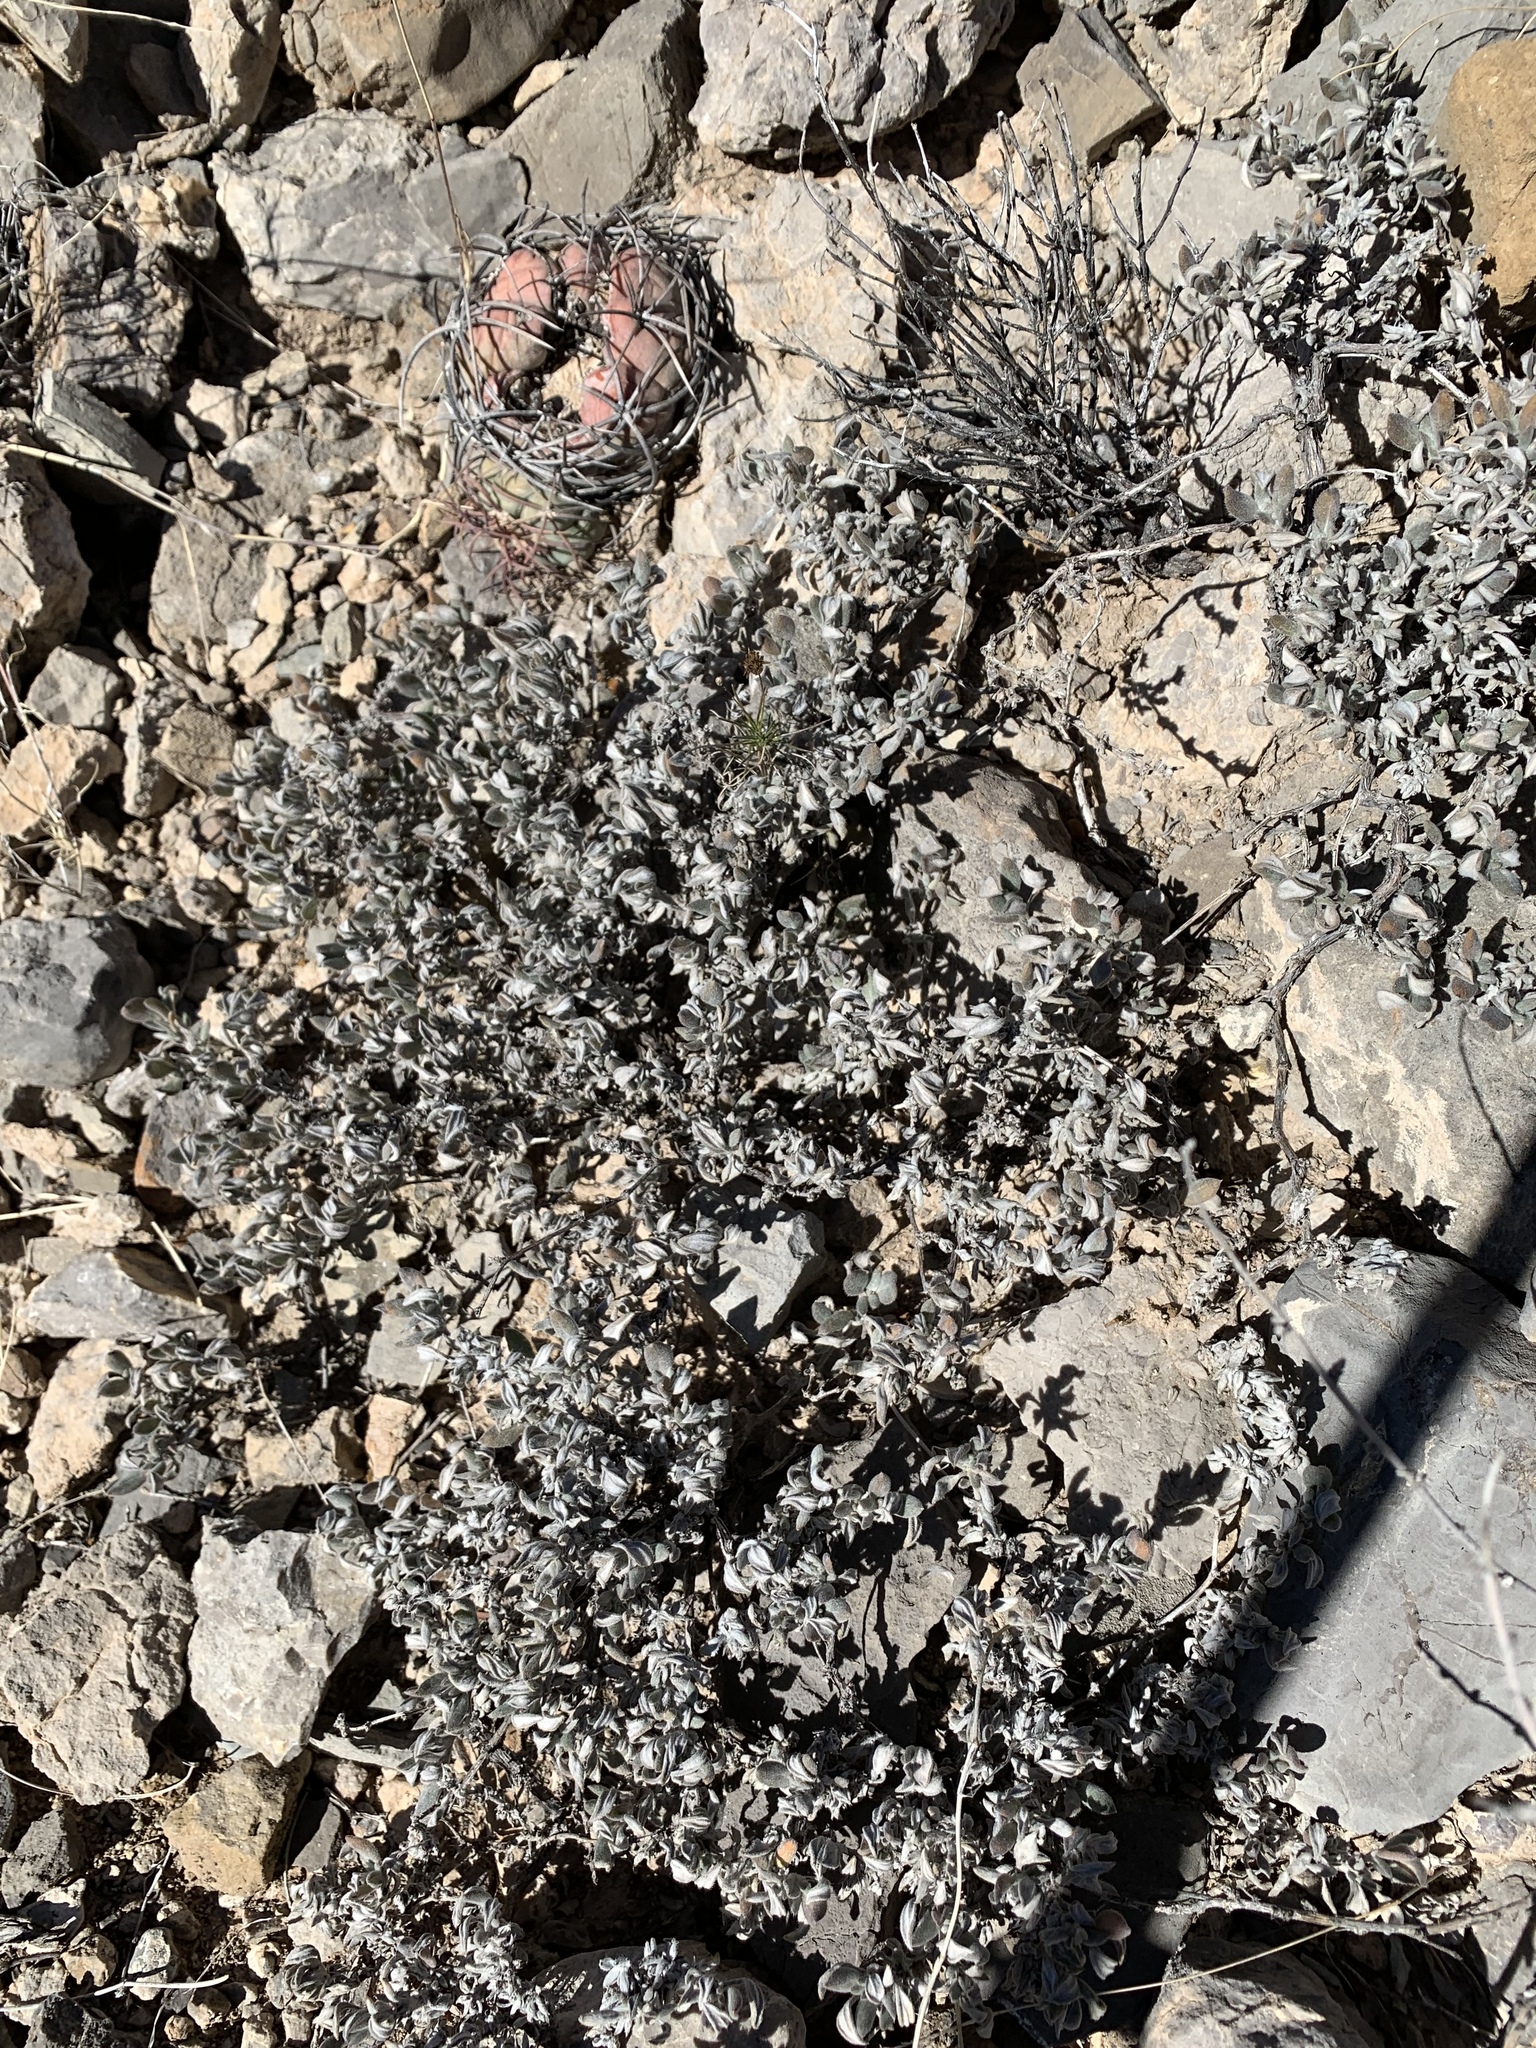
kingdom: Plantae
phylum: Tracheophyta
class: Magnoliopsida
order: Boraginales
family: Ehretiaceae
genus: Tiquilia
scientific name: Tiquilia canescens
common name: Hairy tiquilia
